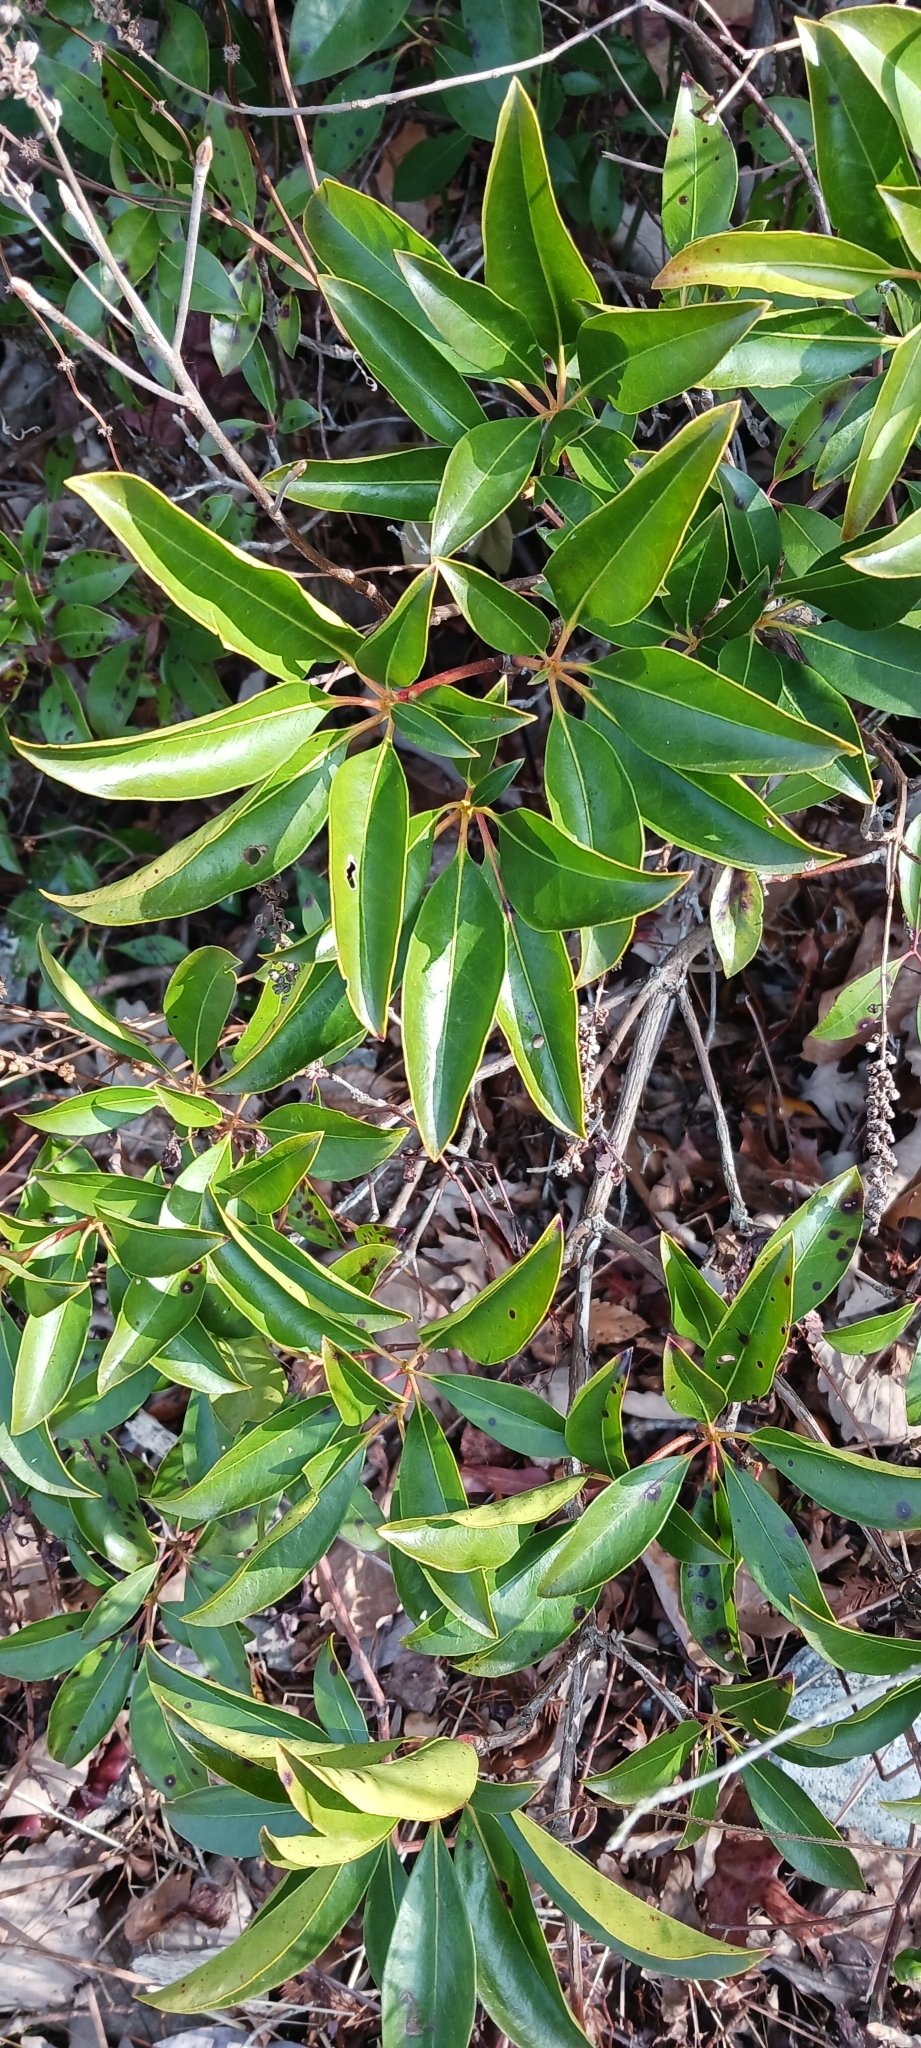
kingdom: Plantae
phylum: Tracheophyta
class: Magnoliopsida
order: Ericales
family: Ericaceae
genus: Kalmia
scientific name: Kalmia latifolia
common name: Mountain-laurel
